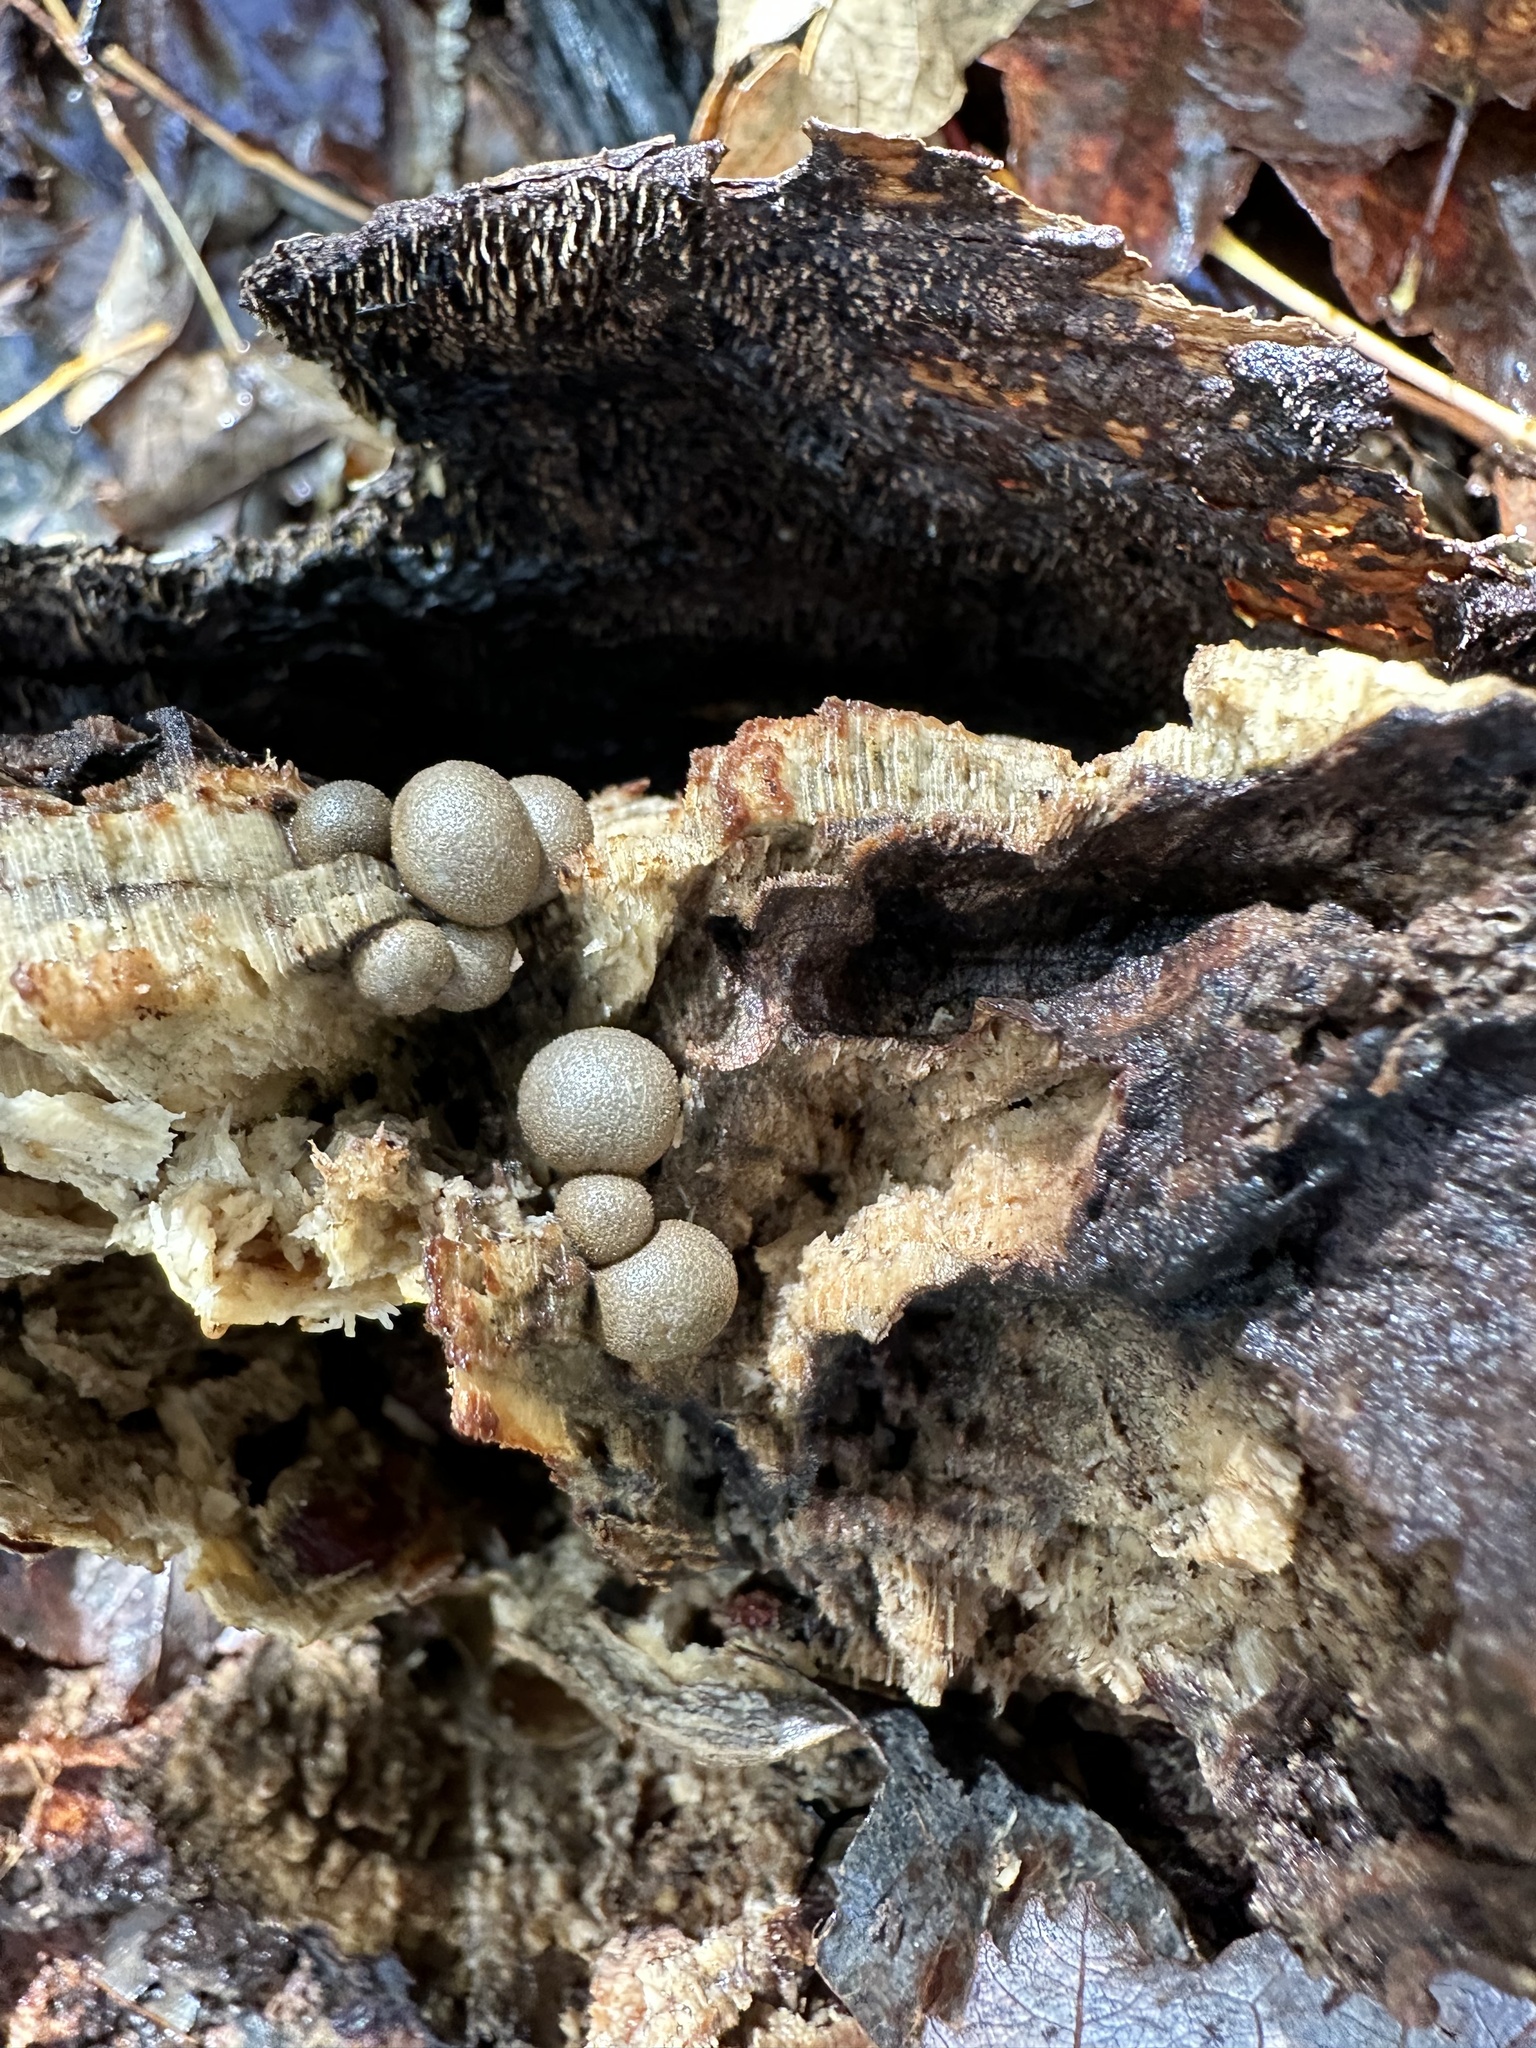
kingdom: Protozoa
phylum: Mycetozoa
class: Myxomycetes
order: Cribrariales
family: Tubiferaceae
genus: Lycogala
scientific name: Lycogala epidendrum
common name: Wolf's milk
